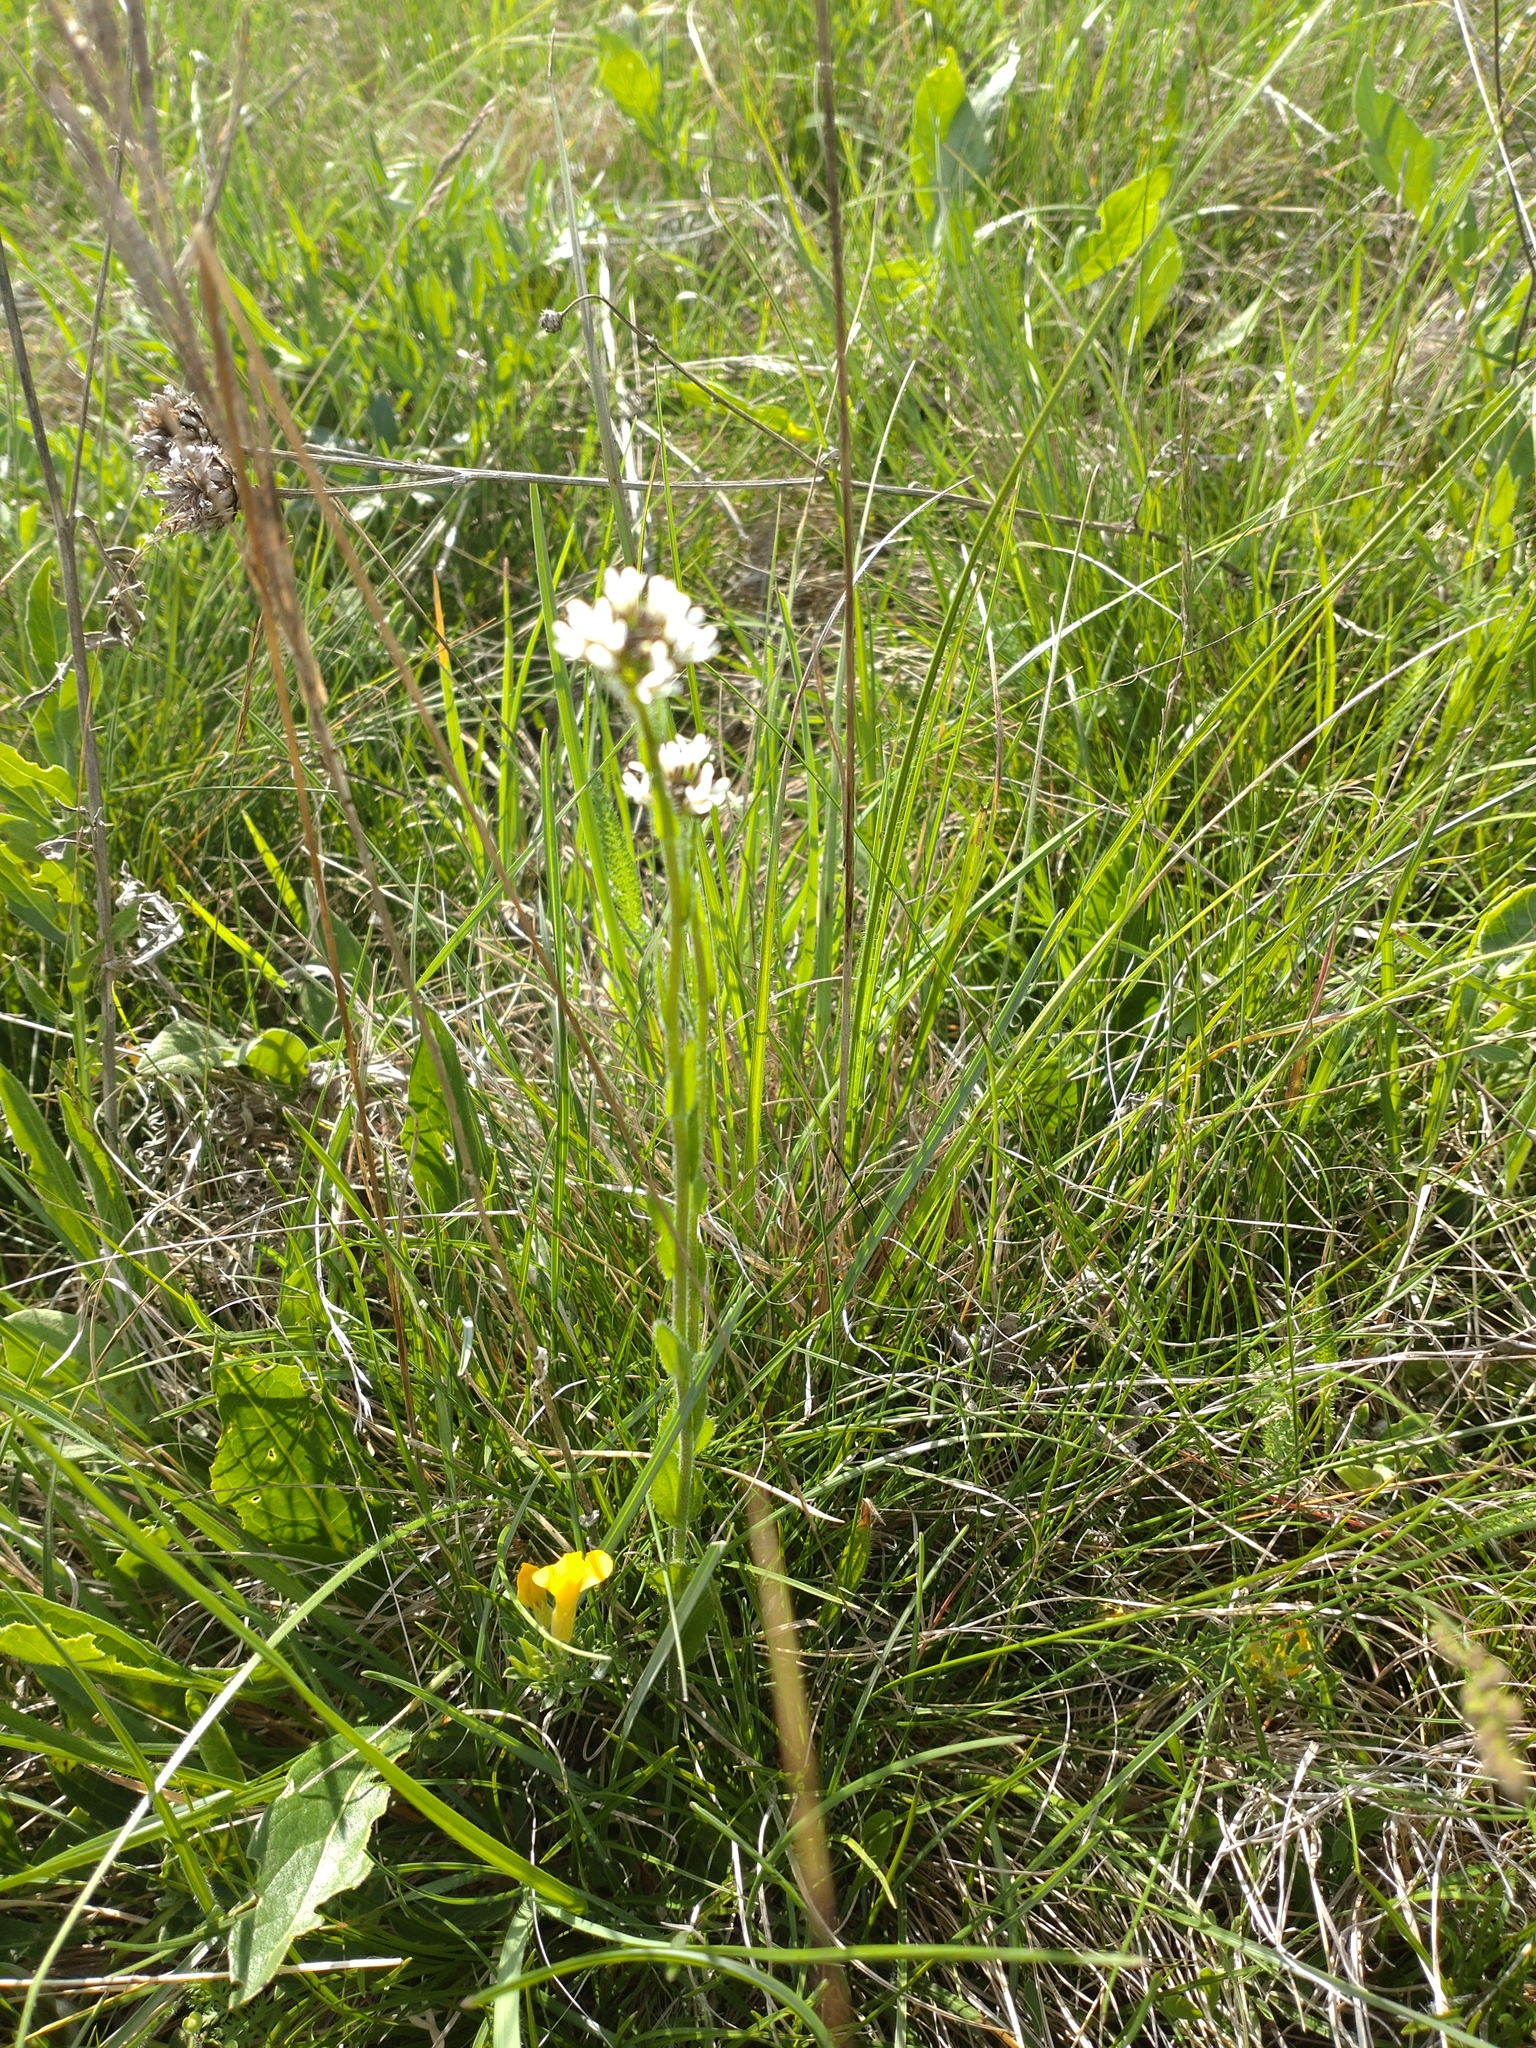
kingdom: Plantae
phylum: Tracheophyta
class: Magnoliopsida
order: Brassicales
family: Brassicaceae
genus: Arabis
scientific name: Arabis hirsuta
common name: Hairy rock-cress
